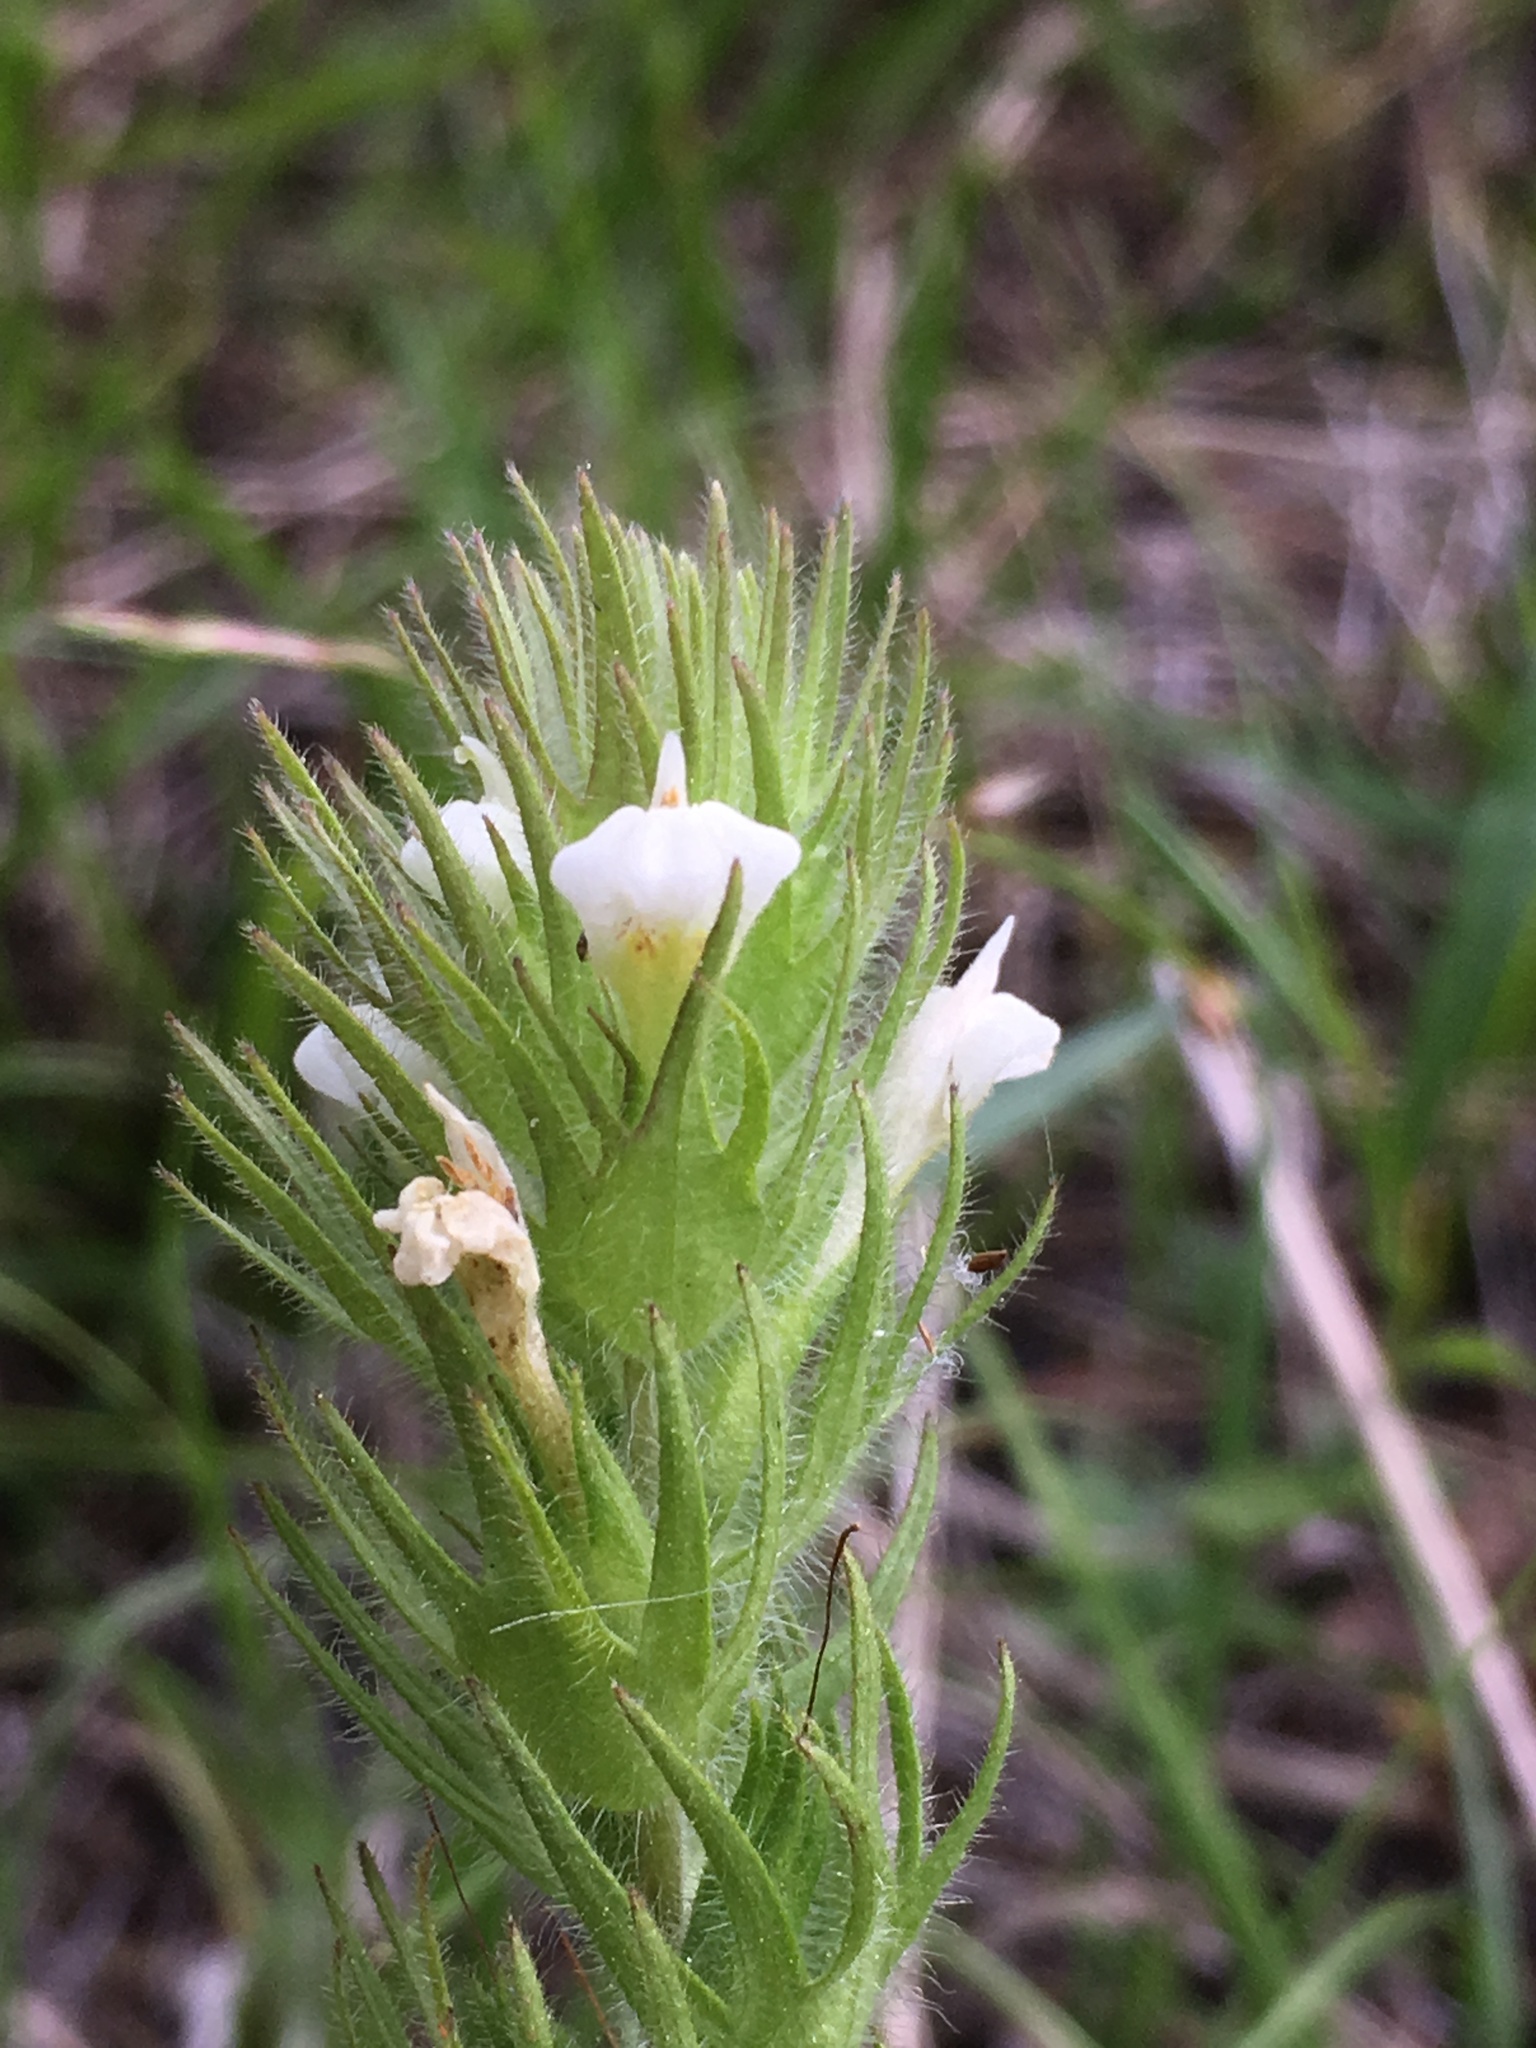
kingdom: Plantae
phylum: Tracheophyta
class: Magnoliopsida
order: Lamiales
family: Orobanchaceae
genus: Castilleja
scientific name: Castilleja tenuis
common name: Hairy indian paintbrush
